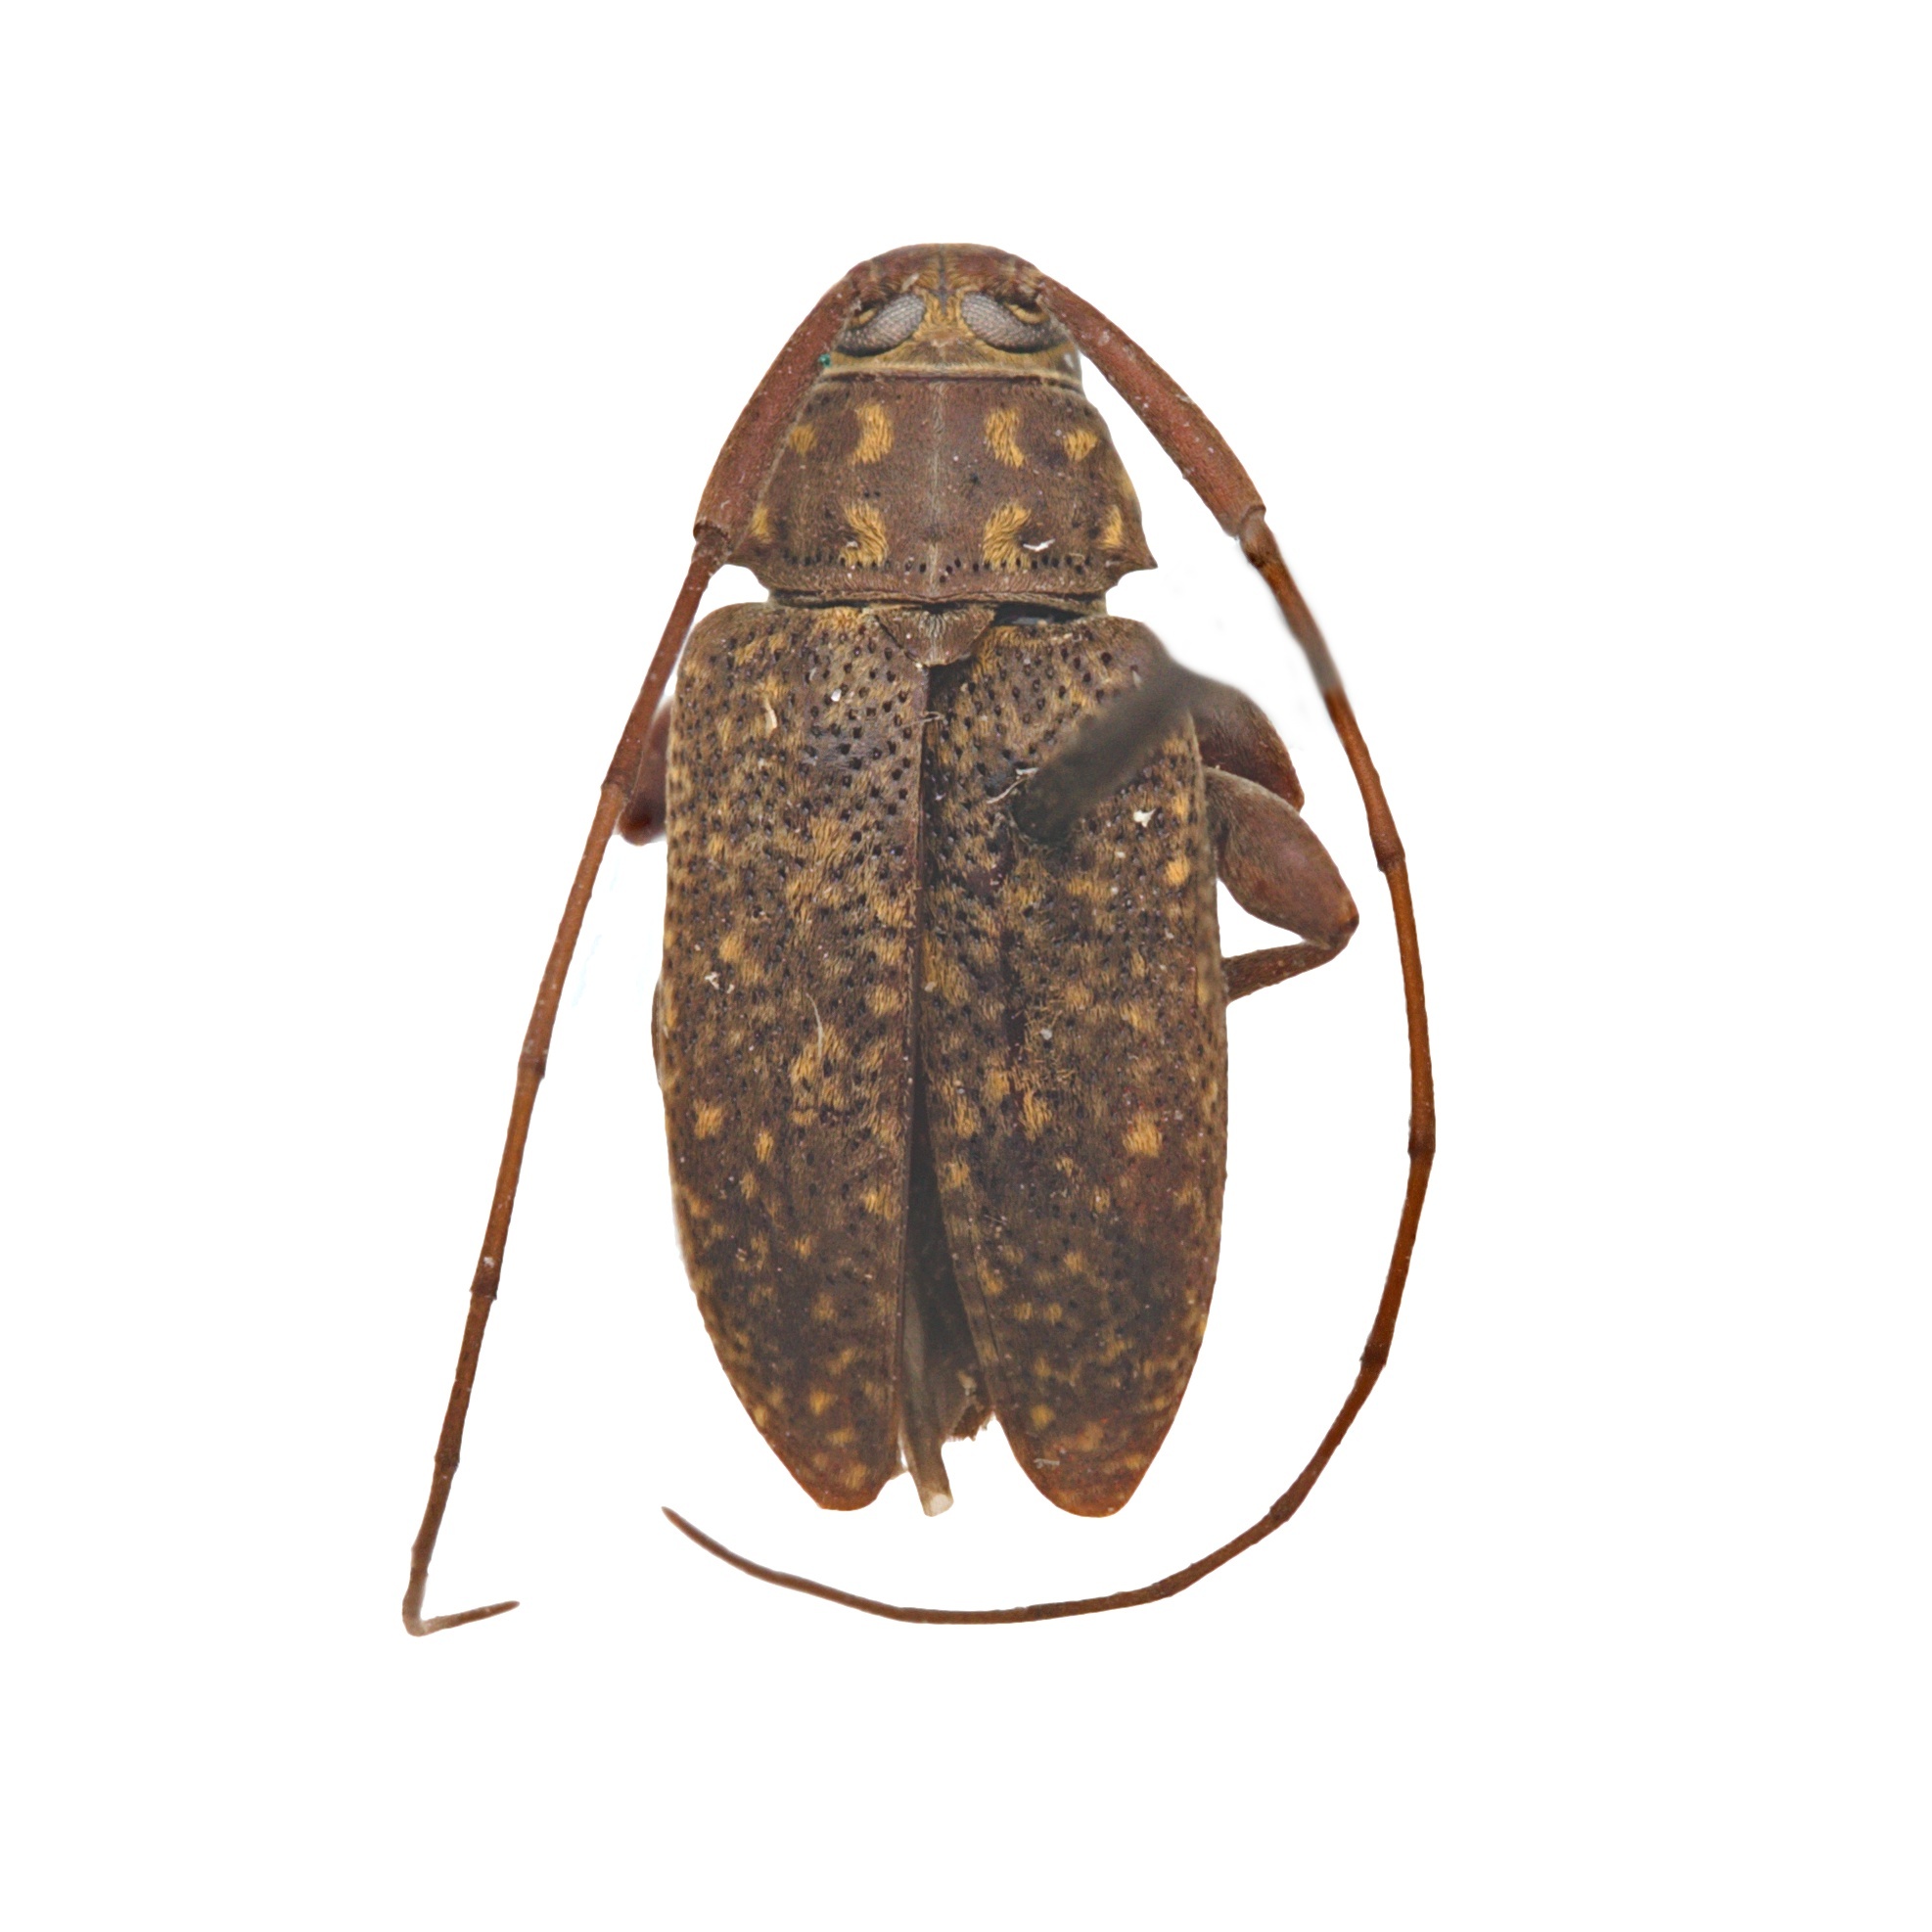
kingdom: Animalia
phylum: Arthropoda
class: Insecta
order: Coleoptera
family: Cerambycidae
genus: Atrypanius
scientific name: Atrypanius irrorellus
